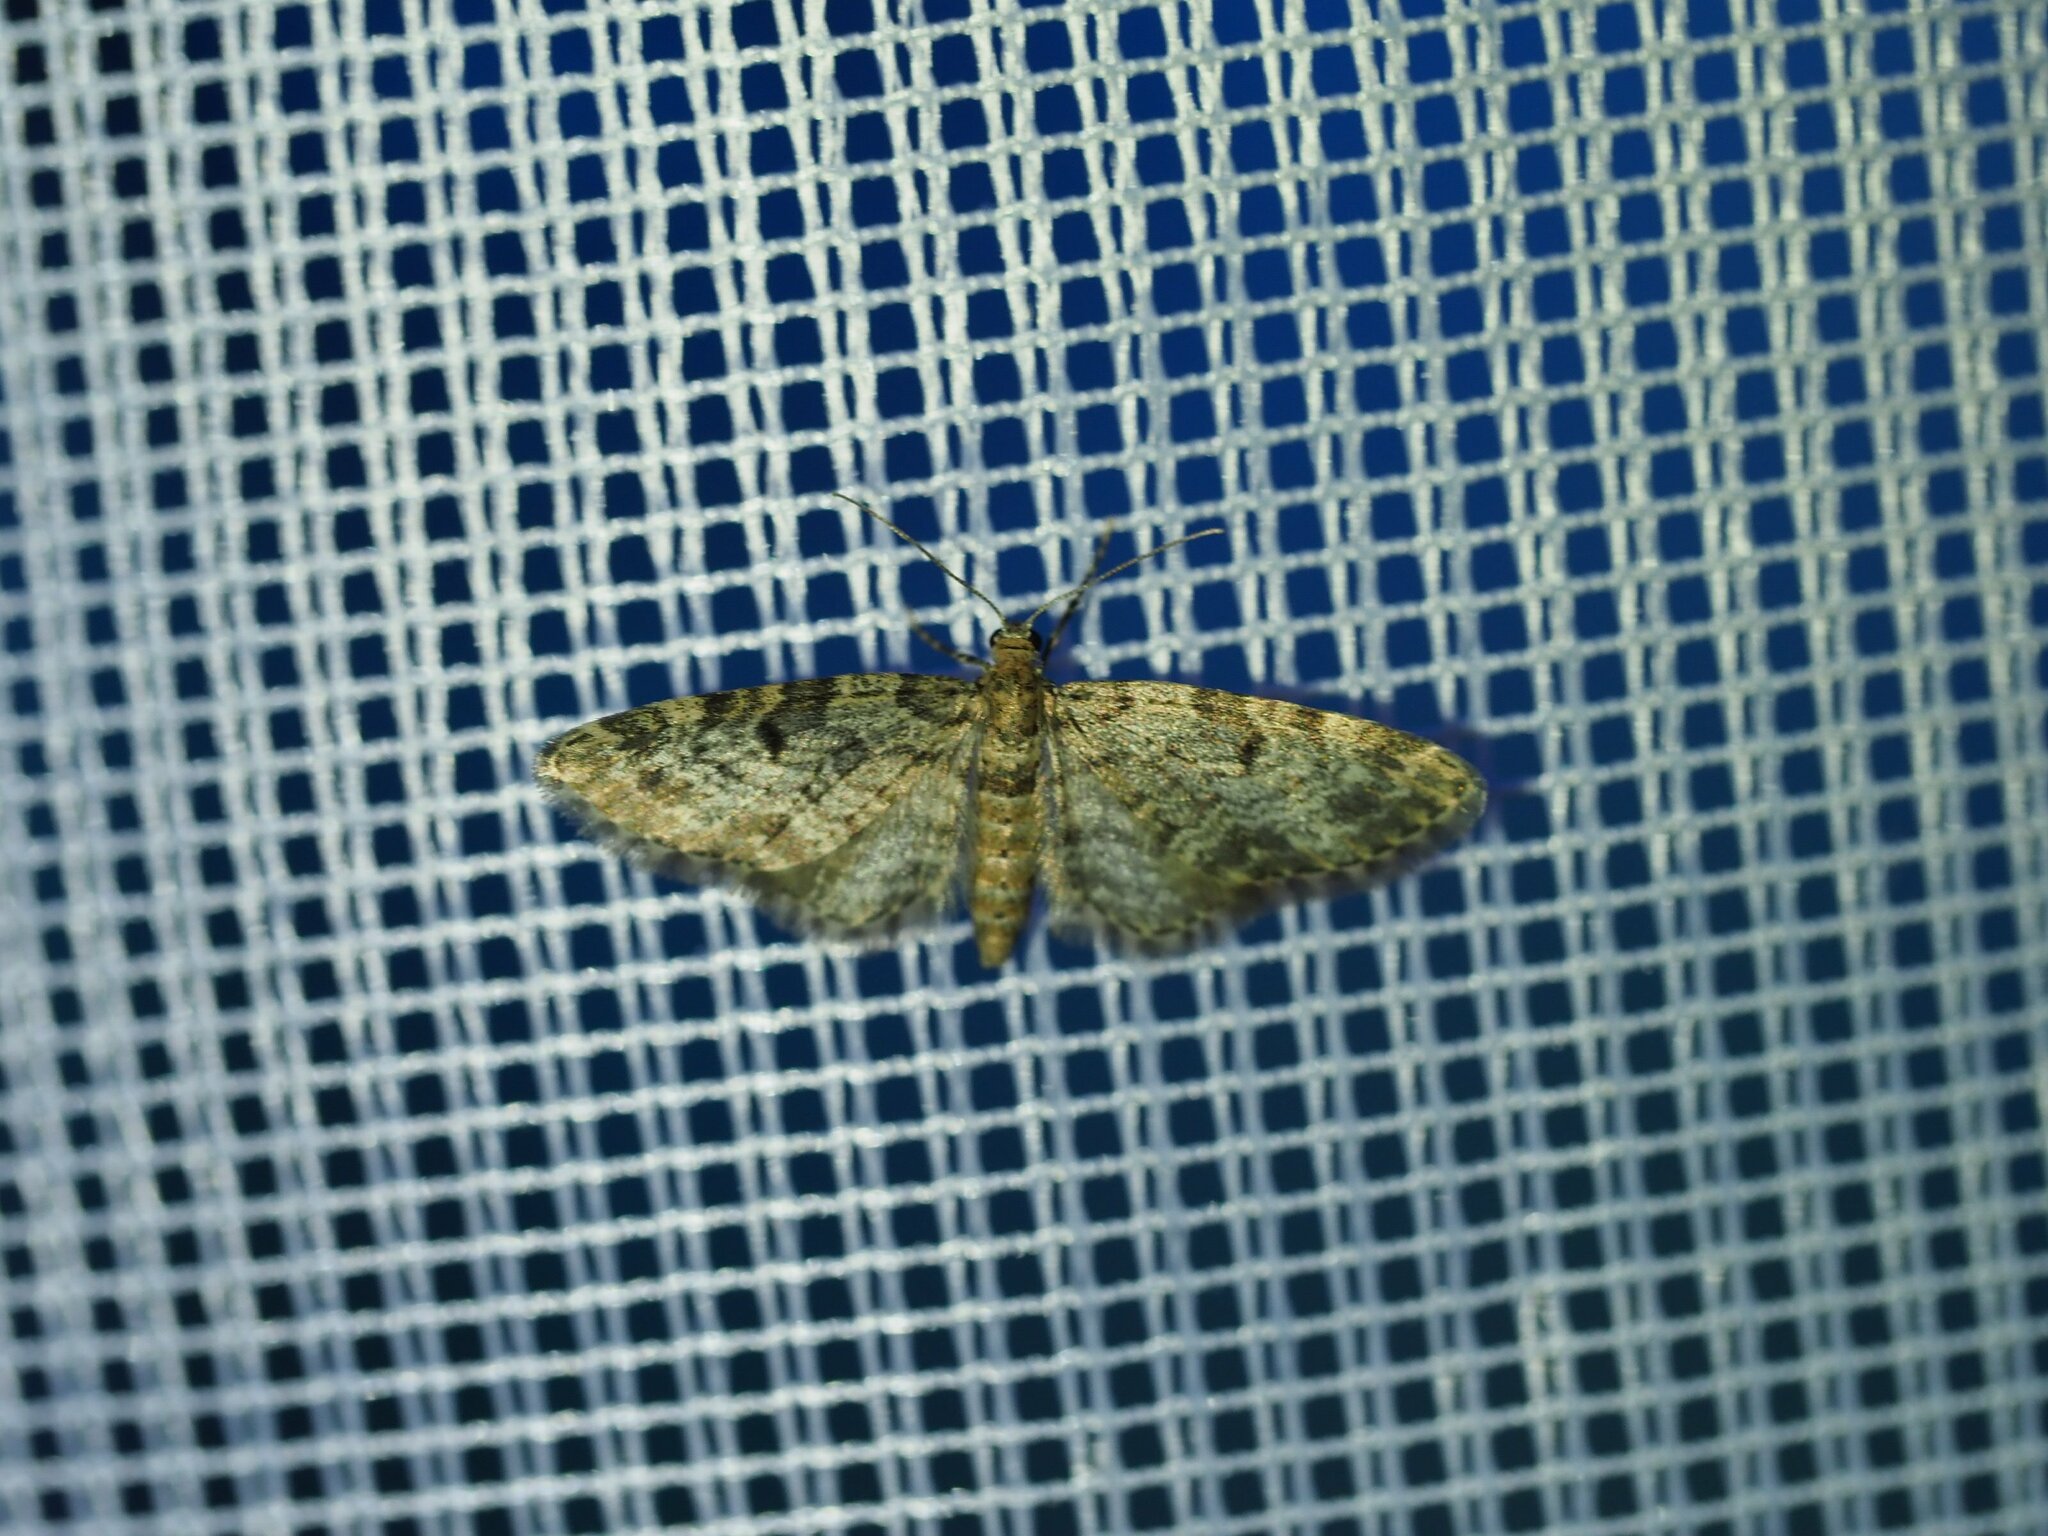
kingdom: Animalia
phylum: Arthropoda
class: Insecta
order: Lepidoptera
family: Geometridae
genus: Eupithecia
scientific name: Eupithecia tantillaria
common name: Dwarf pug
